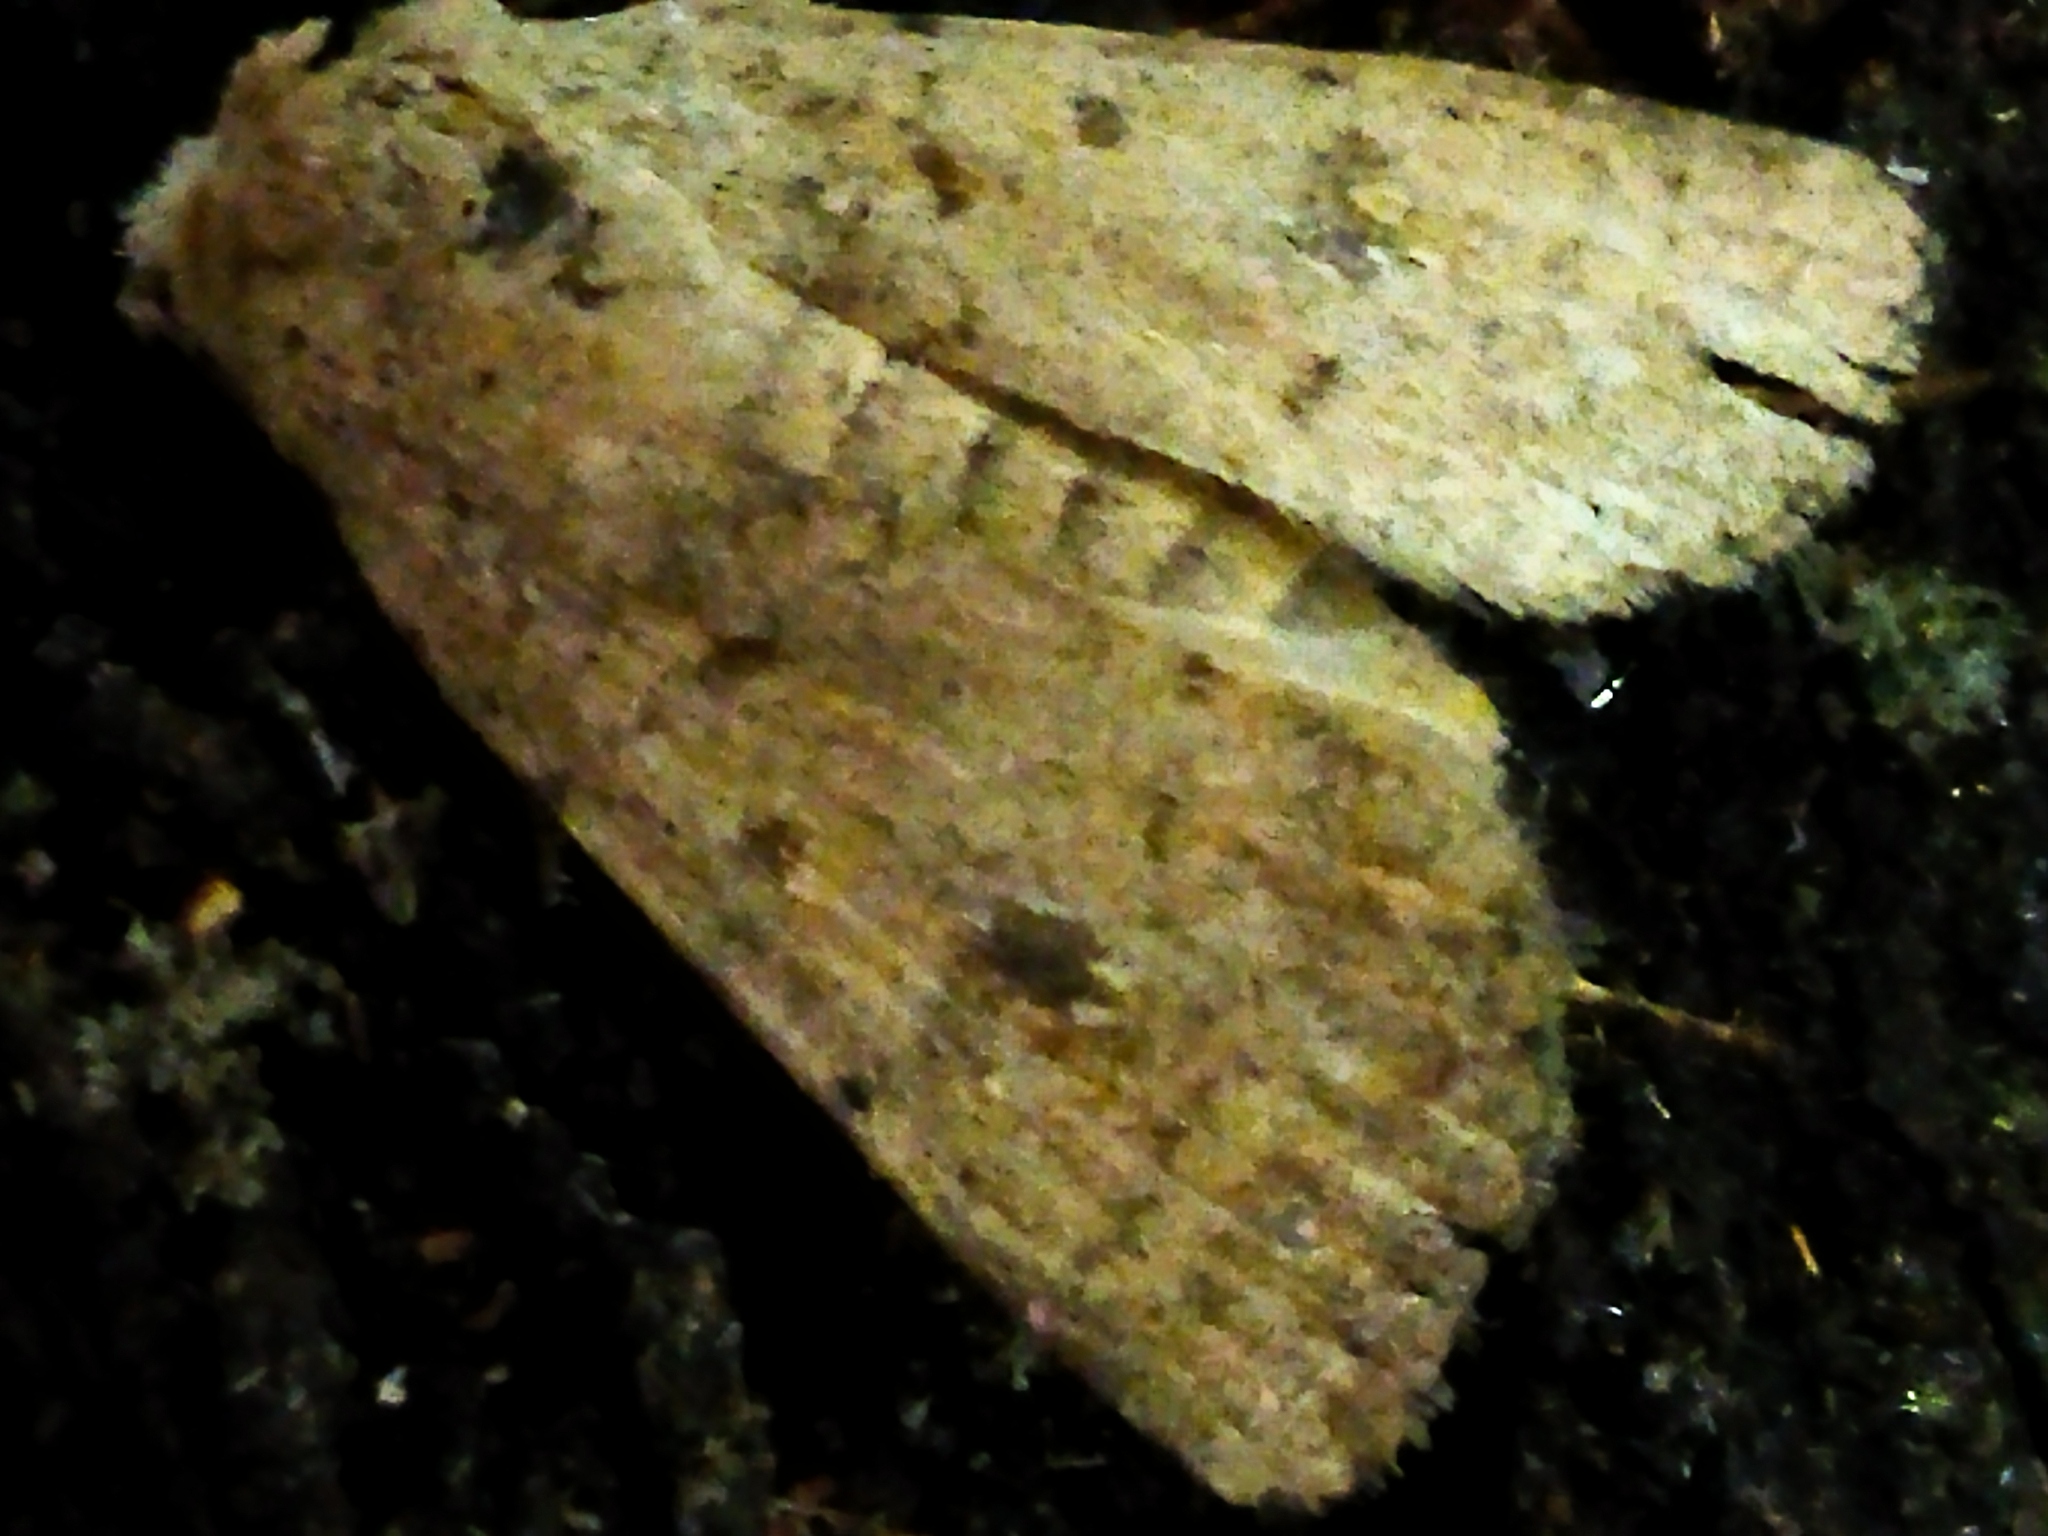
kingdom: Animalia
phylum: Arthropoda
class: Insecta
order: Lepidoptera
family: Noctuidae
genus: Caradrina
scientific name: Caradrina clavipalpis
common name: Pale mottled willow
